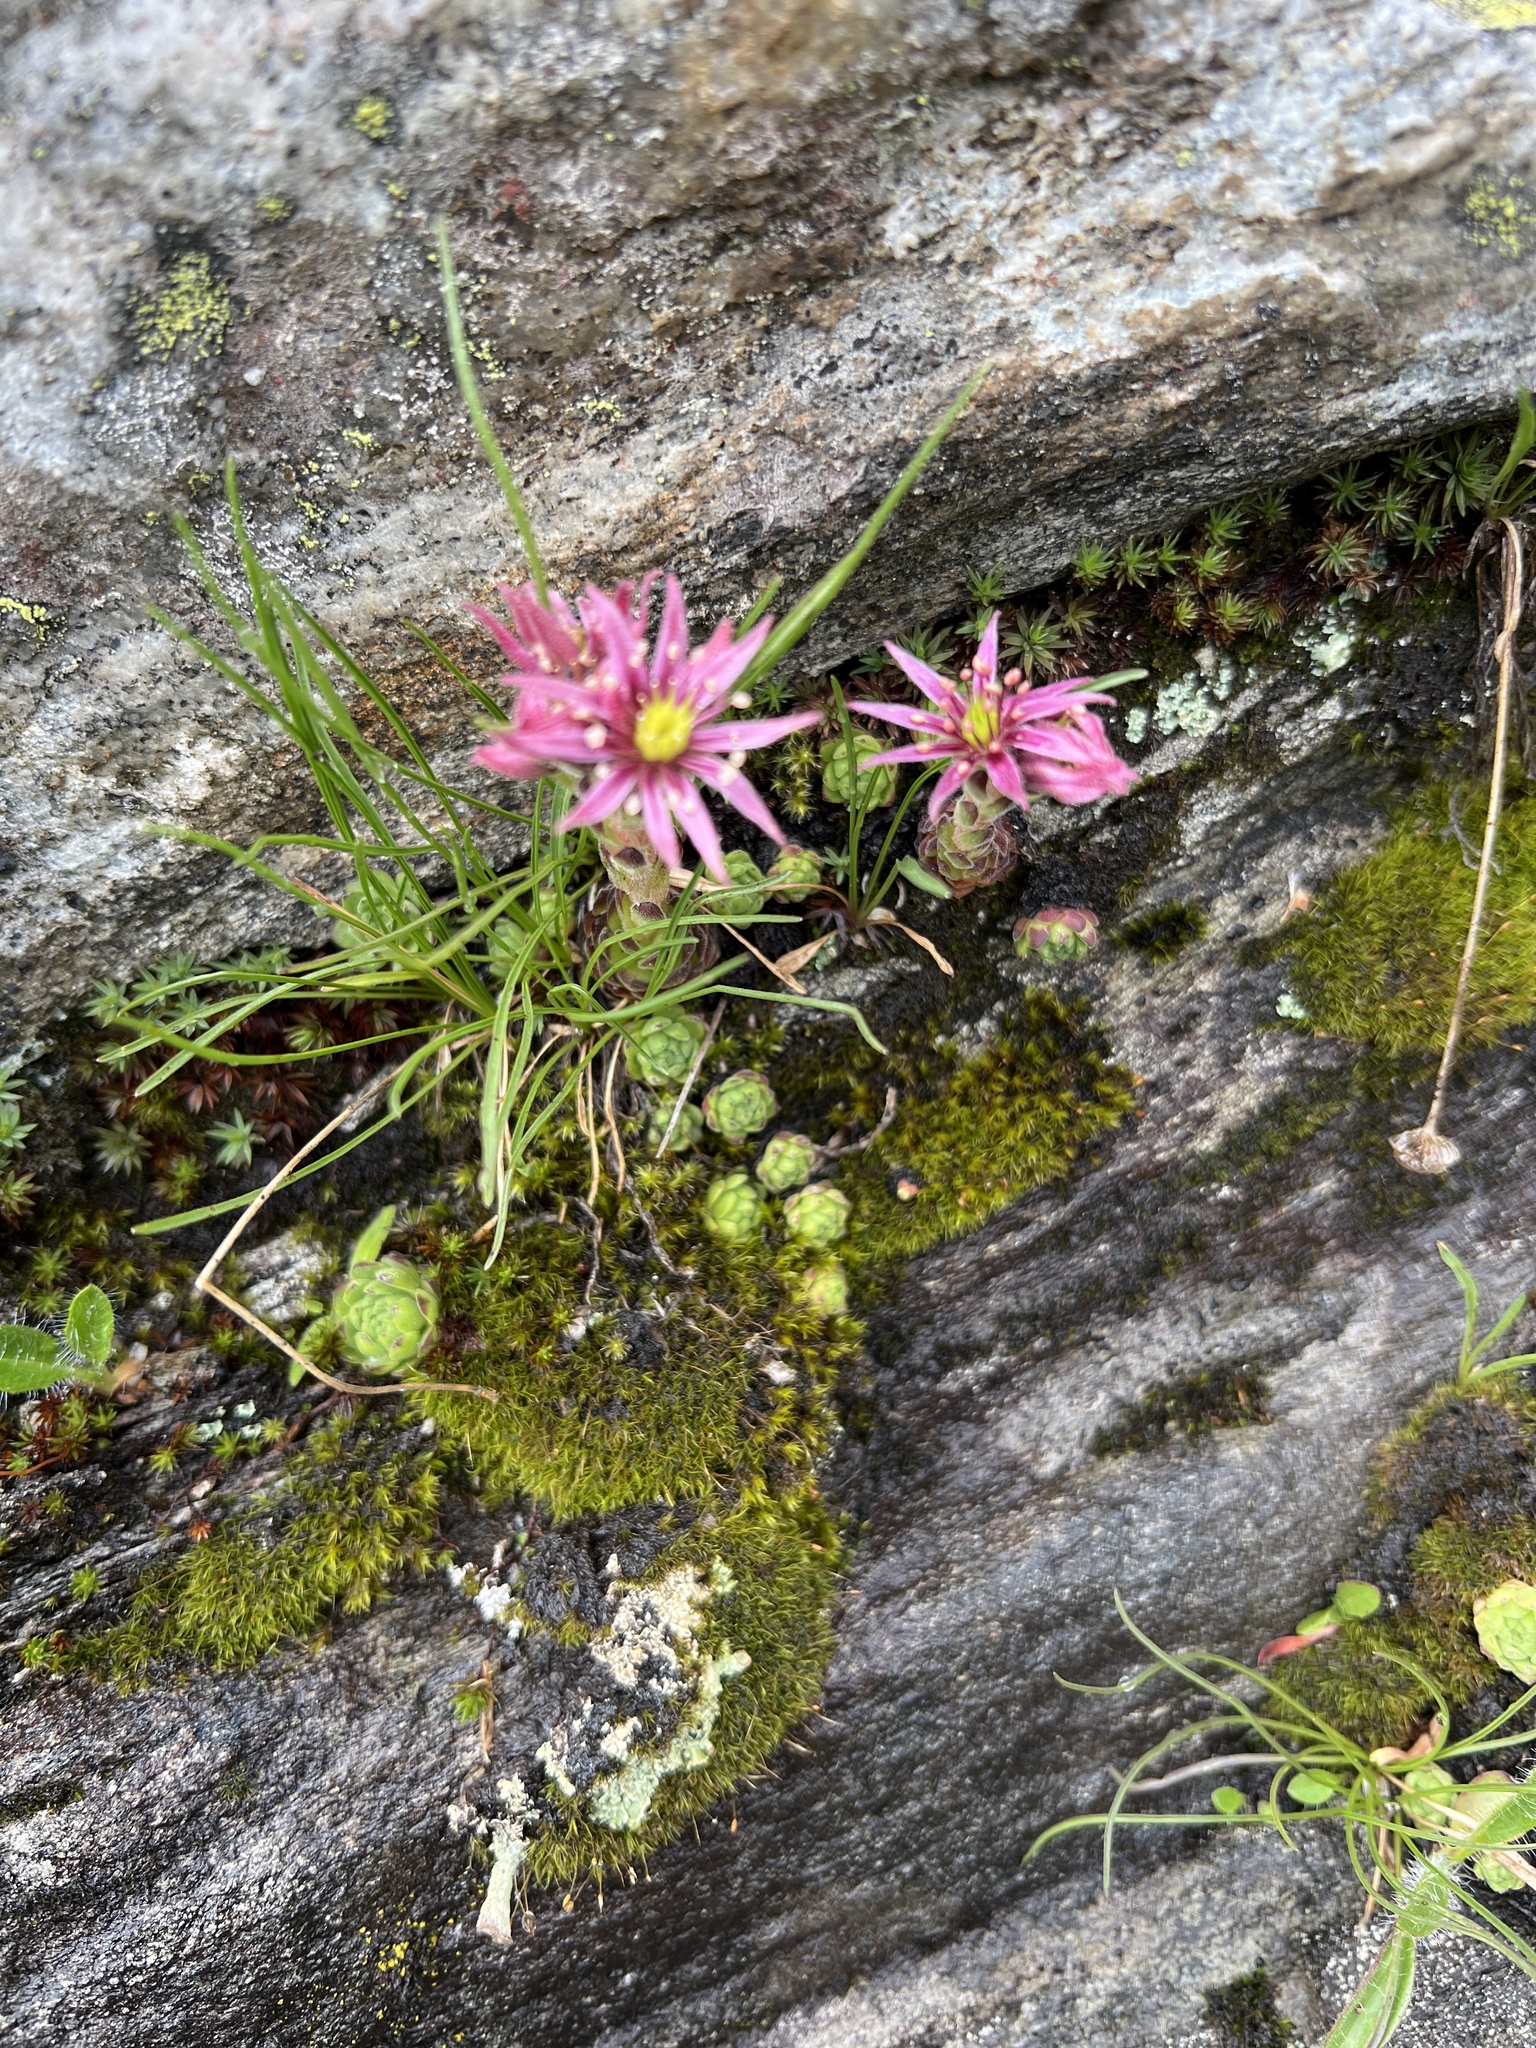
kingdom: Plantae
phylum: Tracheophyta
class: Magnoliopsida
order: Saxifragales
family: Crassulaceae
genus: Sempervivum
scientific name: Sempervivum montanum
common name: Mountain house-leek
